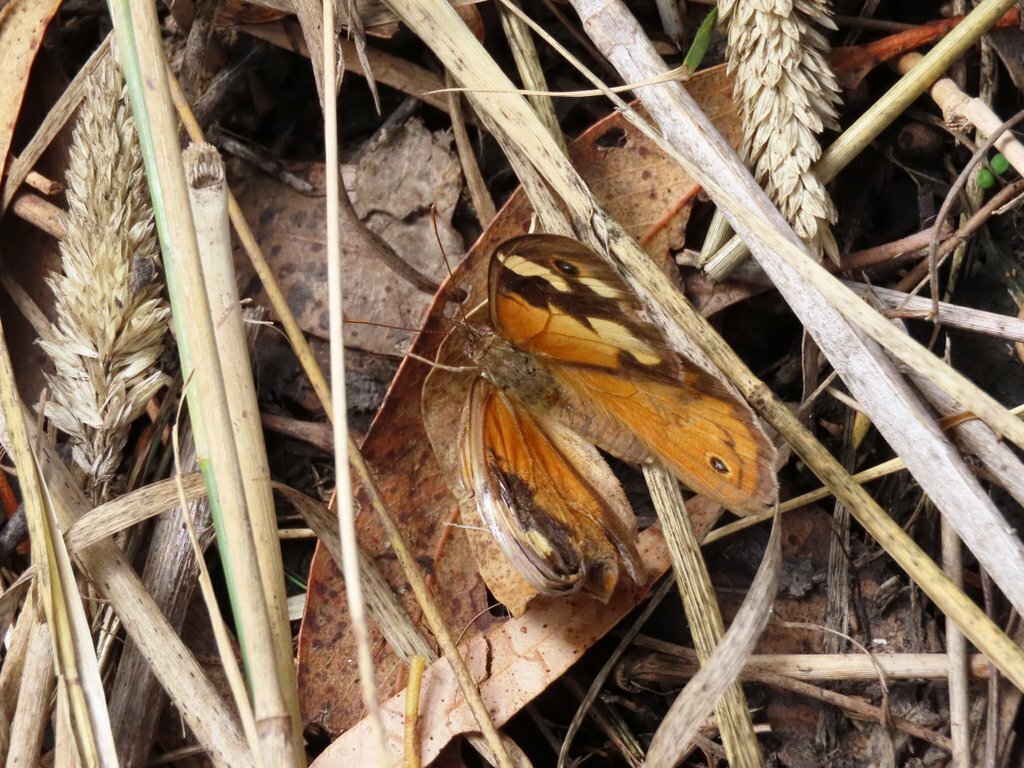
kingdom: Animalia
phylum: Arthropoda
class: Insecta
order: Lepidoptera
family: Nymphalidae
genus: Heteronympha
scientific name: Heteronympha merope
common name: Common brown
